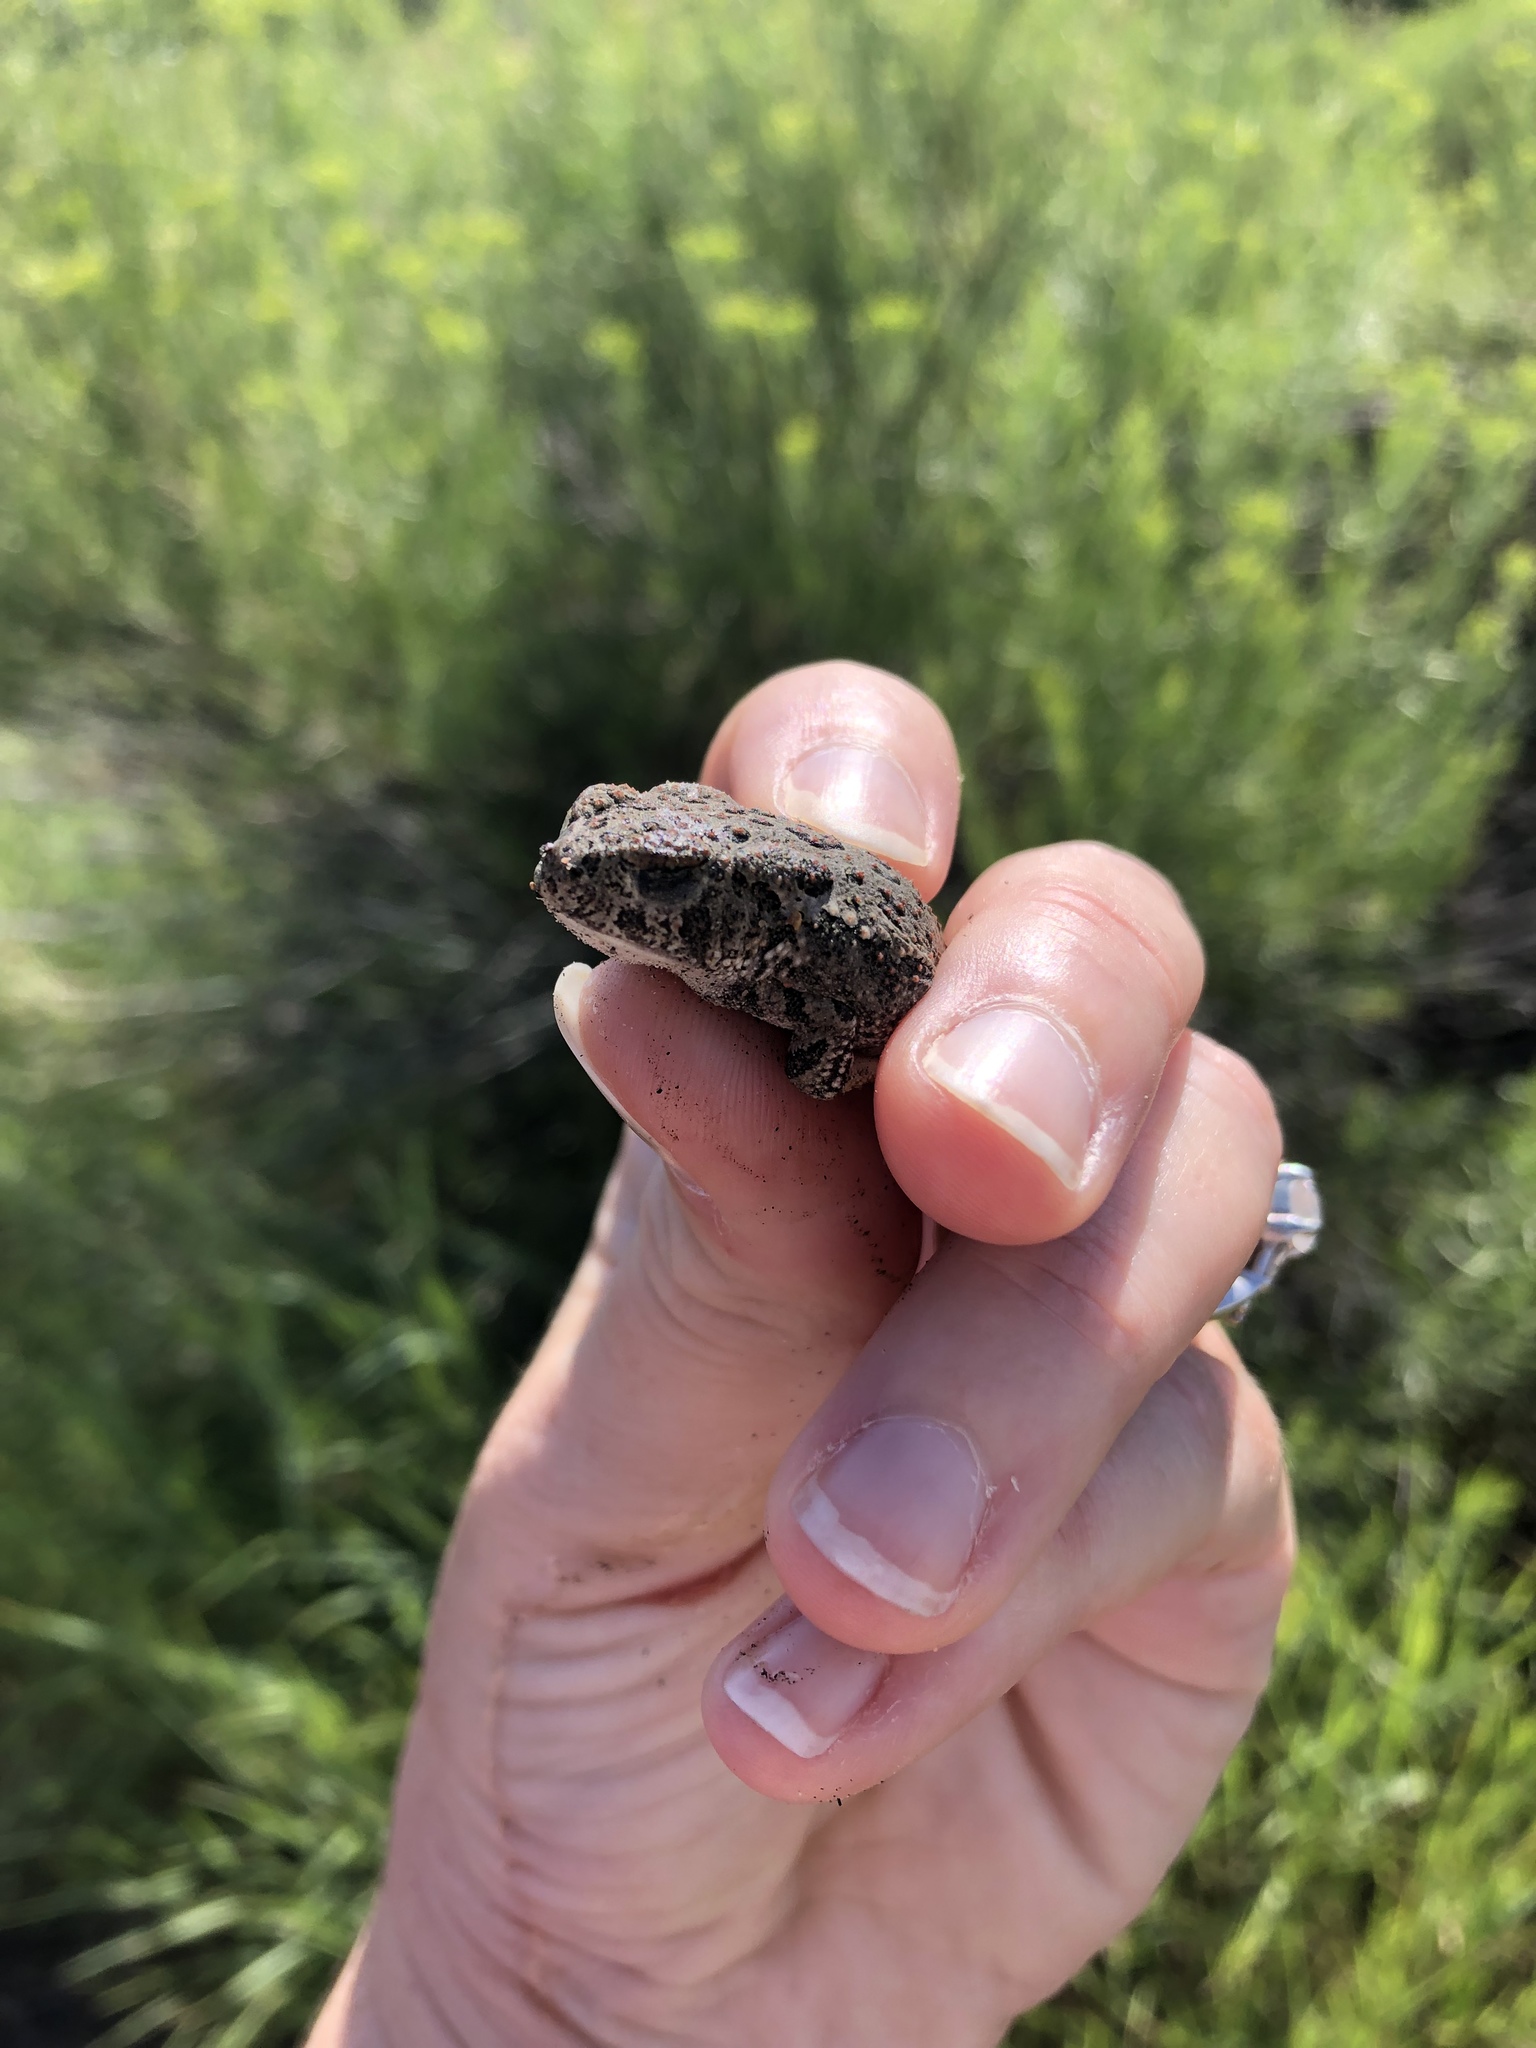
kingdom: Animalia
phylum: Chordata
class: Amphibia
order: Anura
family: Bufonidae
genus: Anaxyrus
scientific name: Anaxyrus woodhousii
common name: Woodhouse's toad
